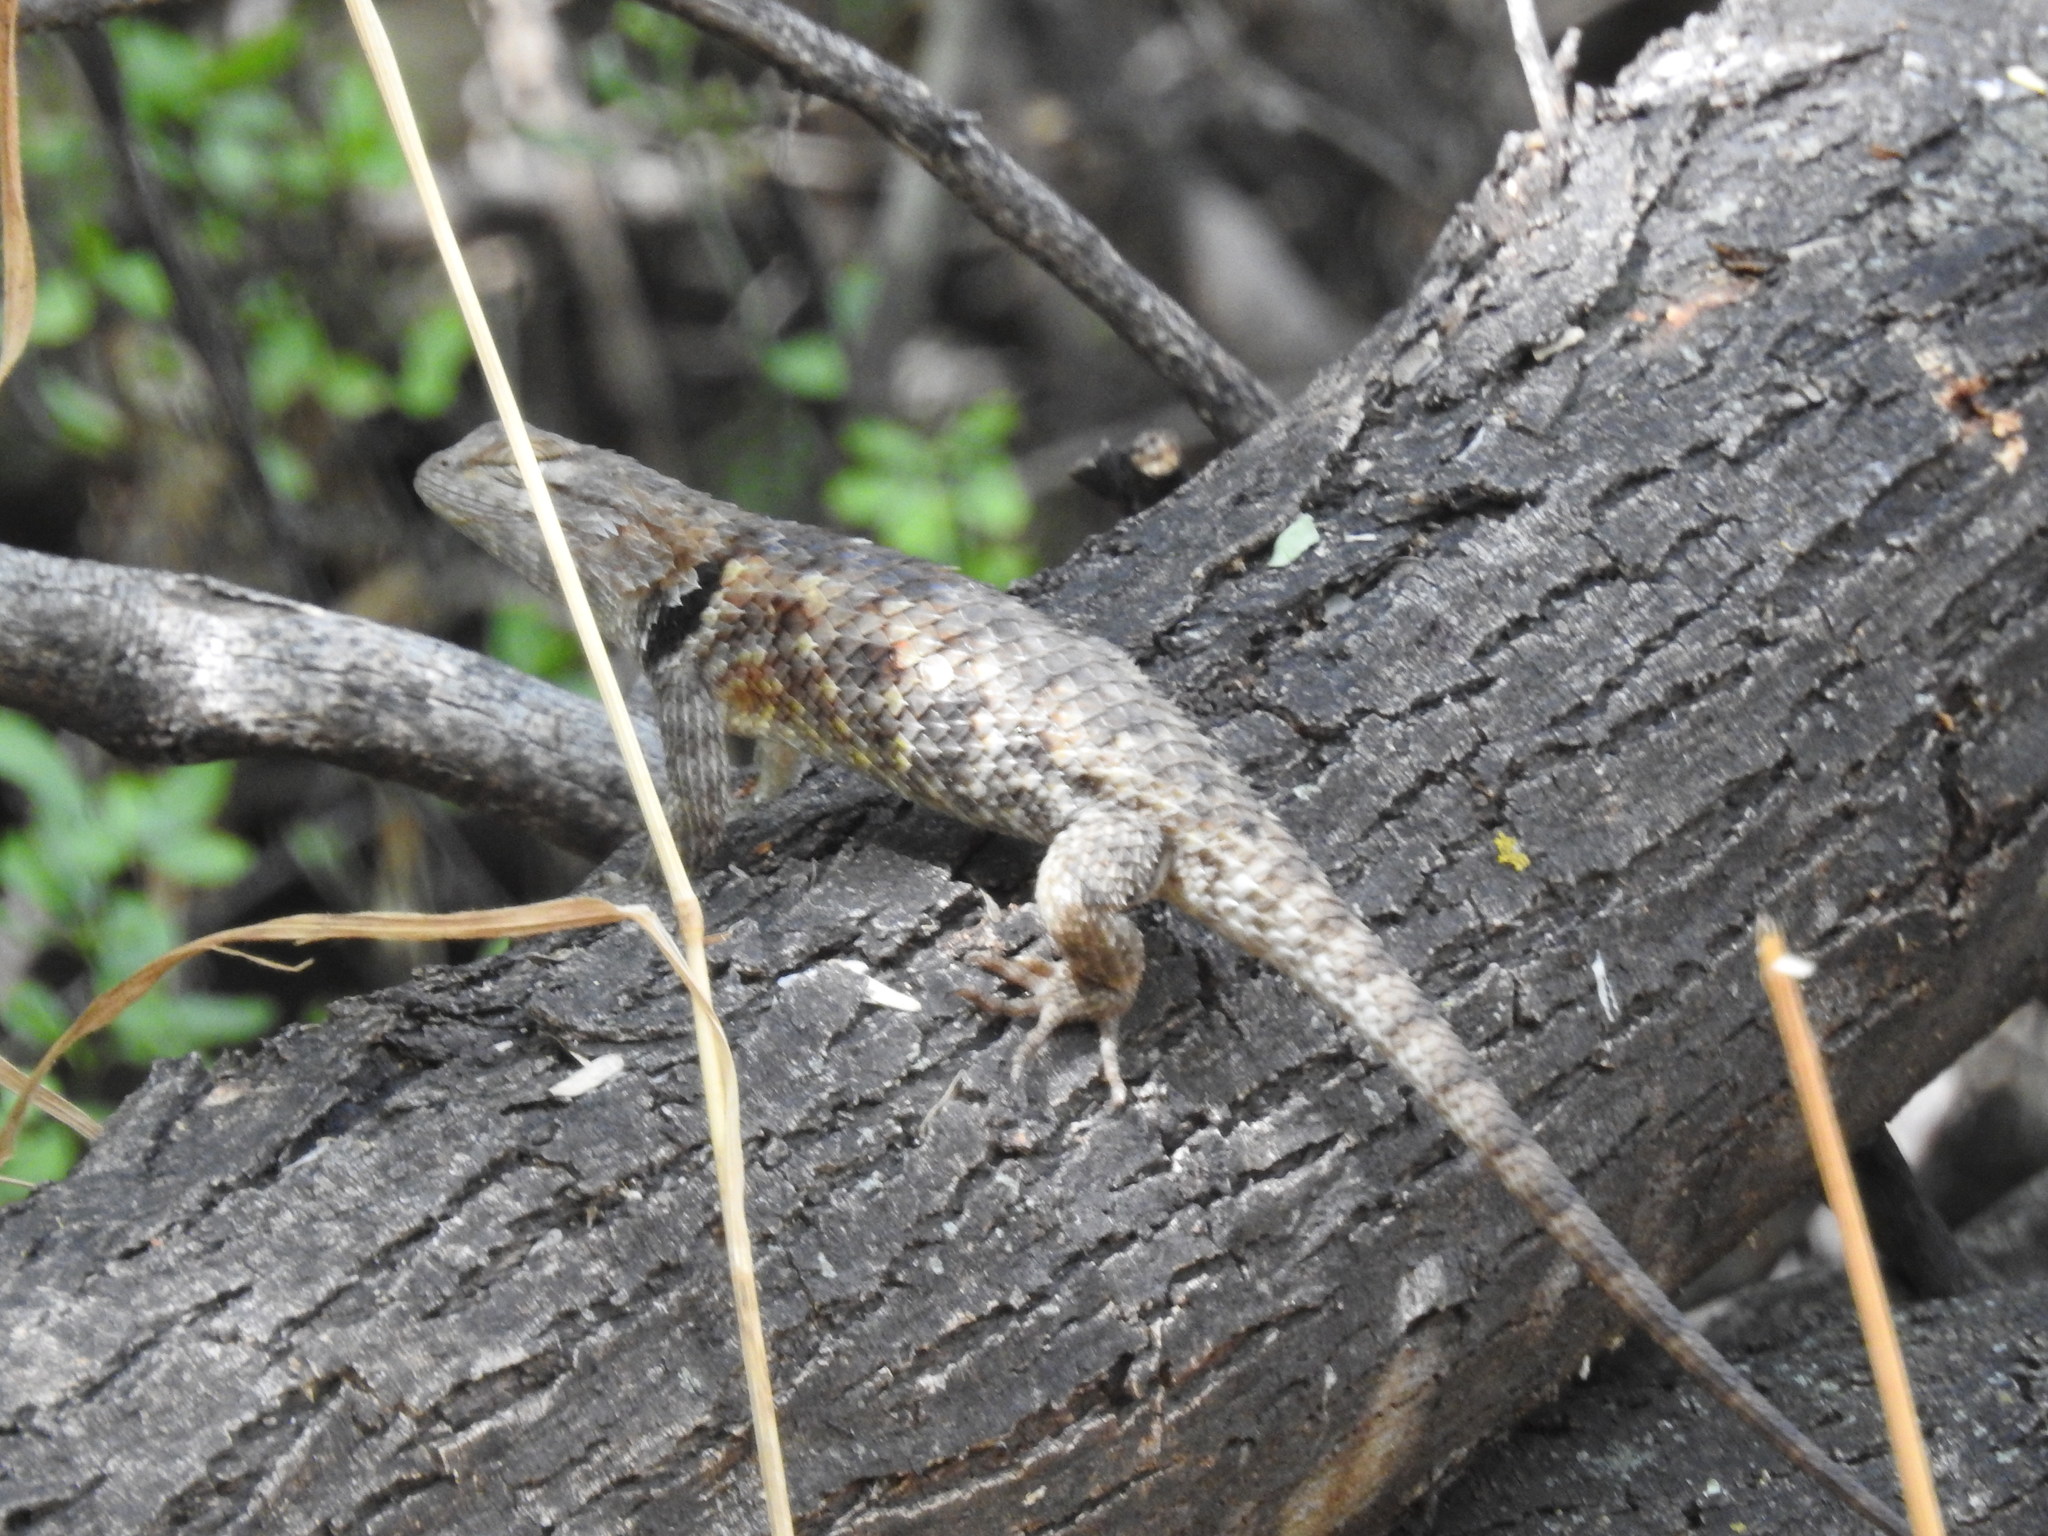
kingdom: Animalia
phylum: Chordata
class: Squamata
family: Phrynosomatidae
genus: Sceloporus
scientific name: Sceloporus magister
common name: Desert spiny lizard
